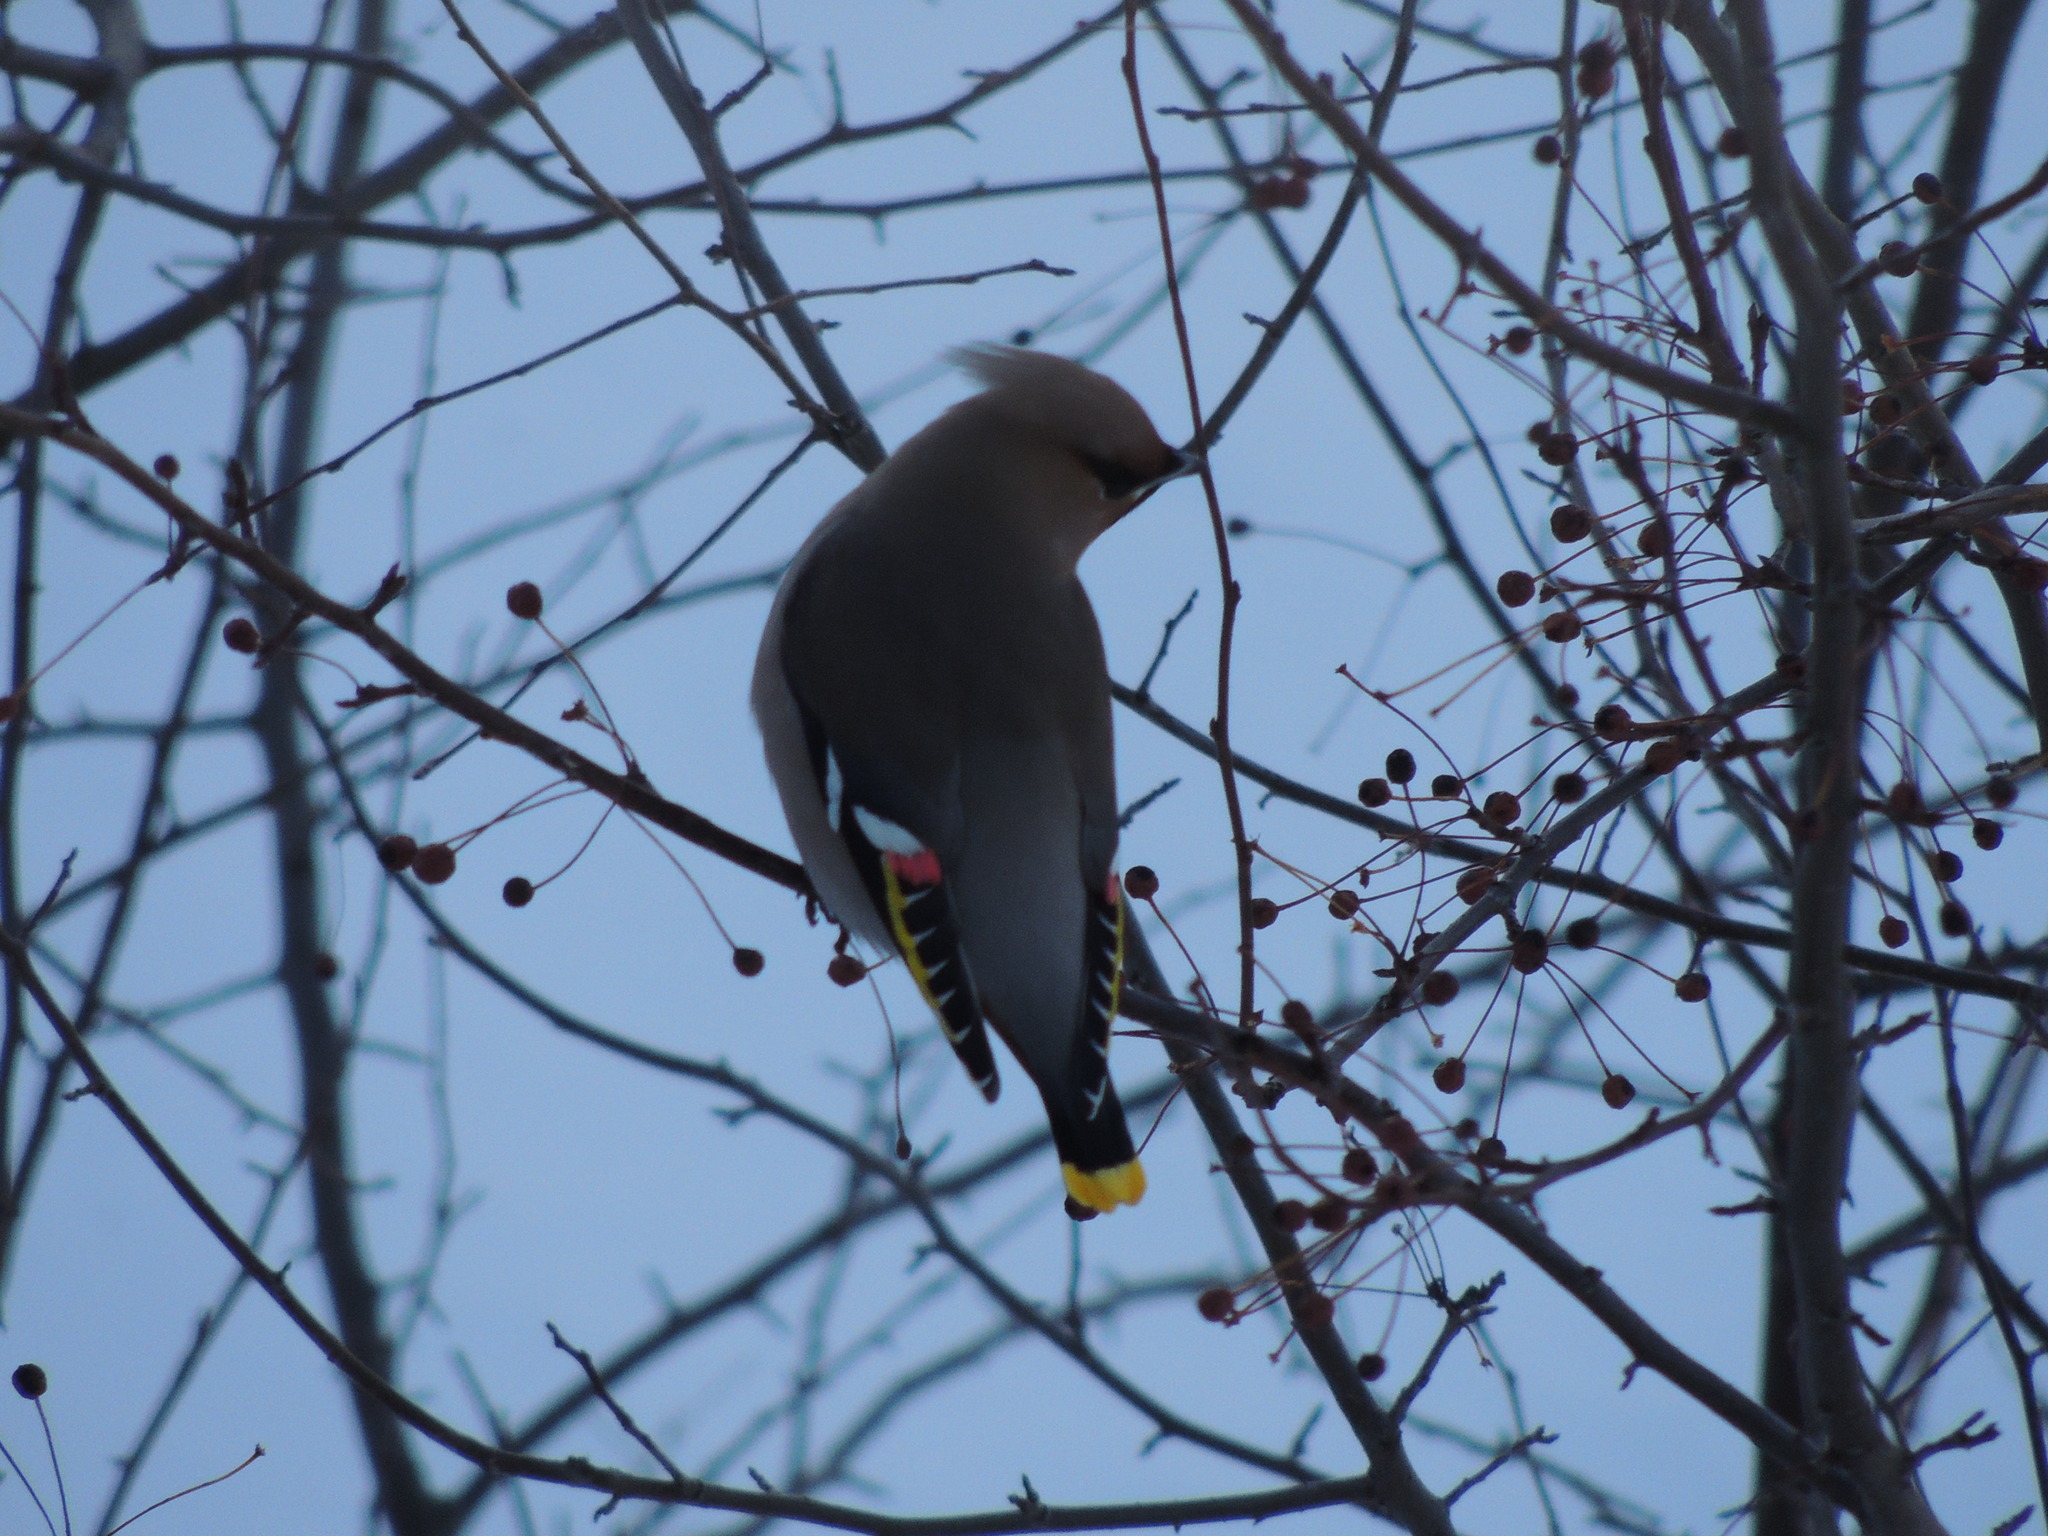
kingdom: Animalia
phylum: Chordata
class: Aves
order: Passeriformes
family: Bombycillidae
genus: Bombycilla
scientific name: Bombycilla garrulus
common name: Bohemian waxwing
